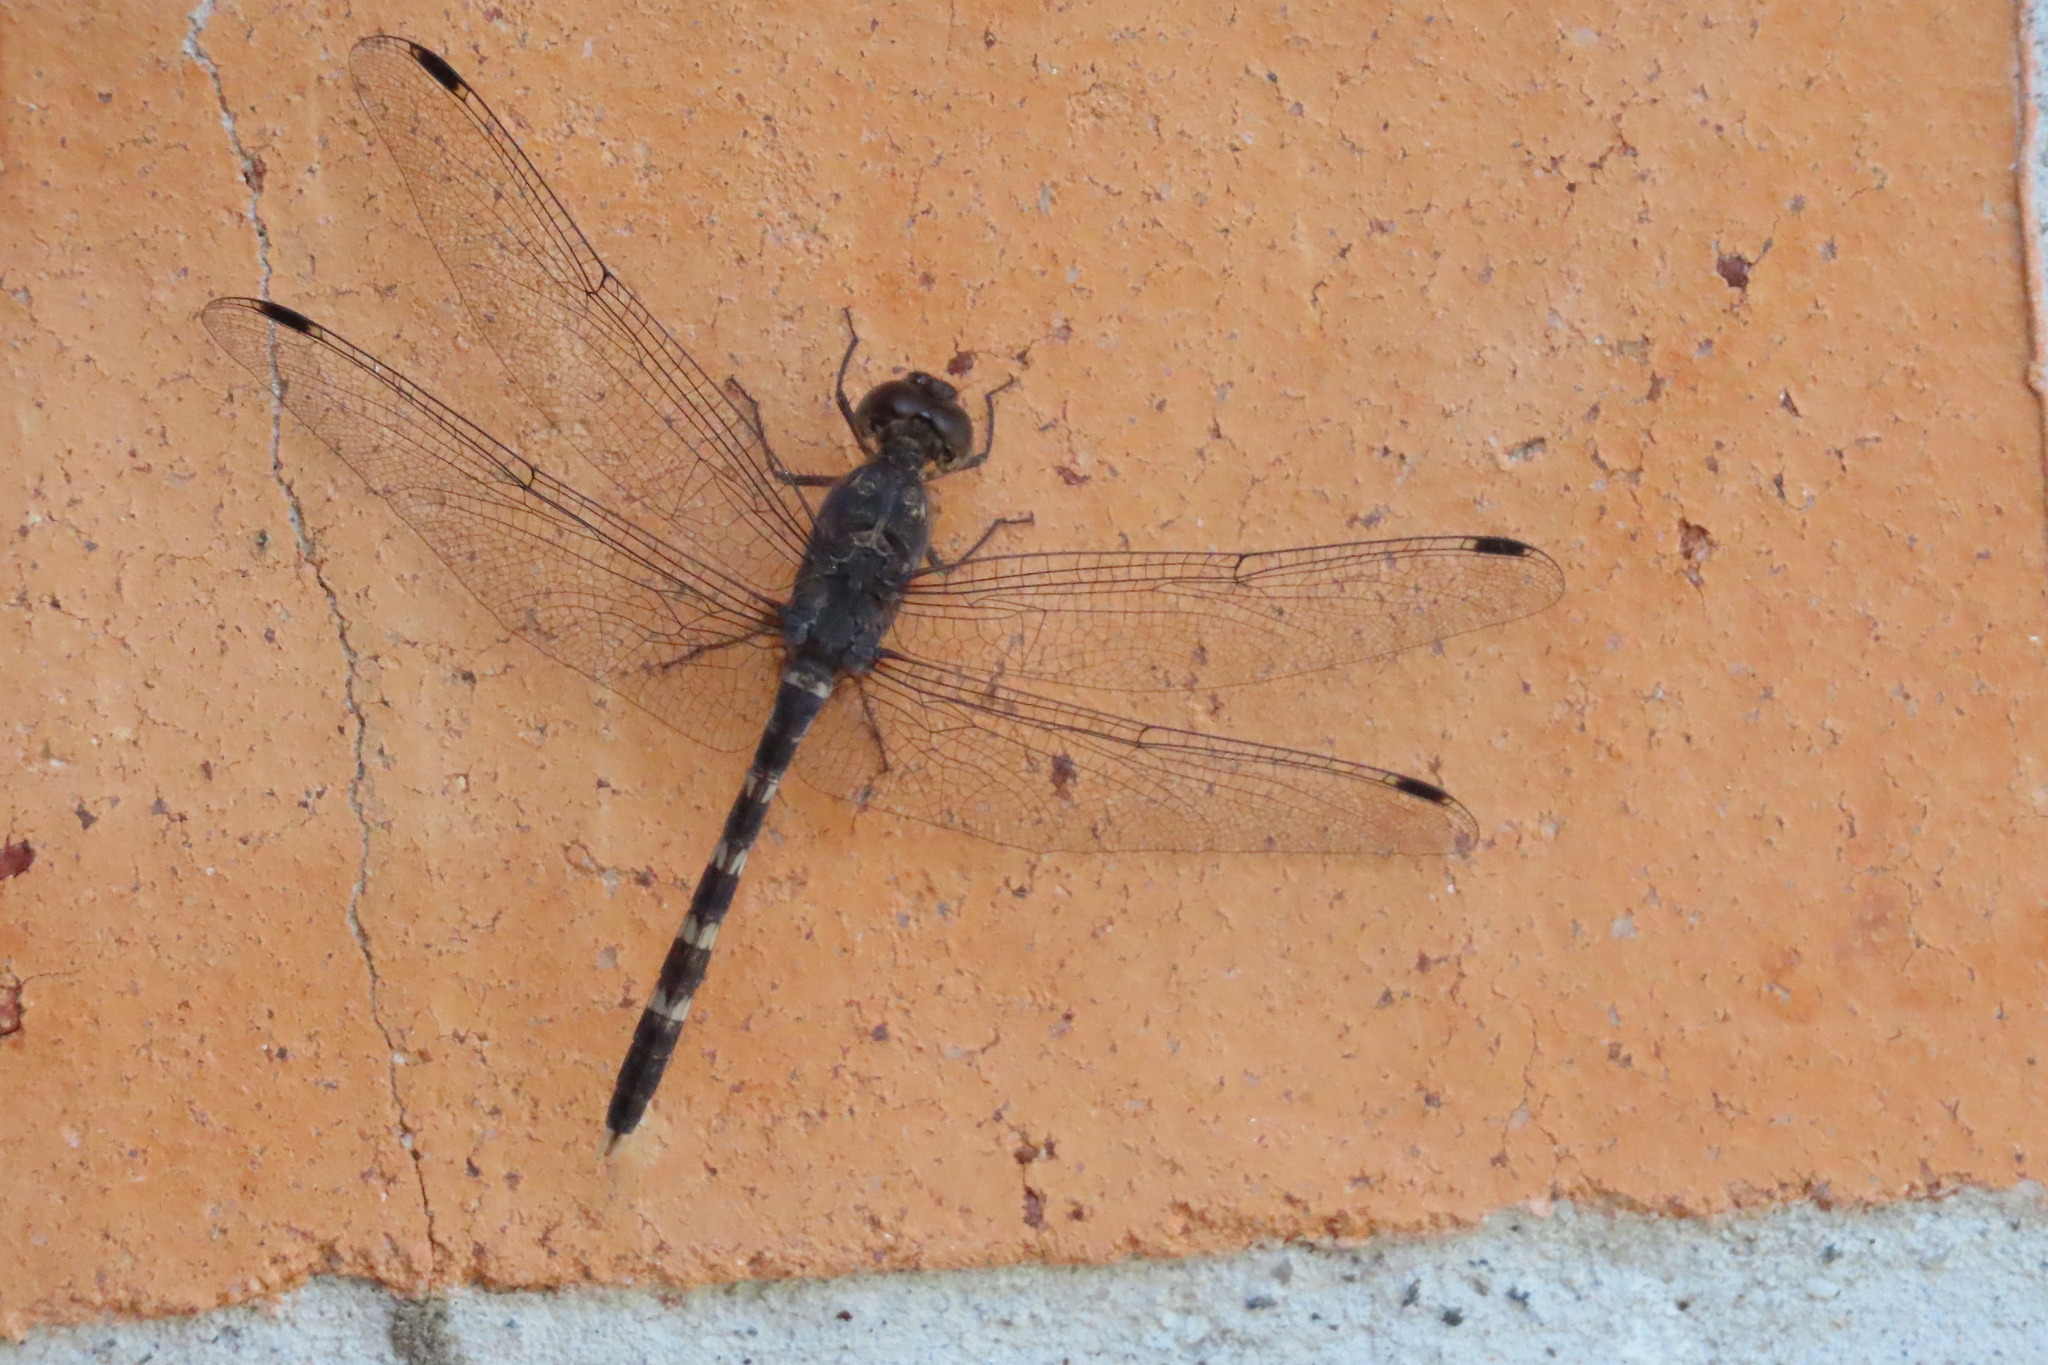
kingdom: Animalia
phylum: Arthropoda
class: Insecta
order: Odonata
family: Libellulidae
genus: Bradinopyga
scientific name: Bradinopyga geminata
